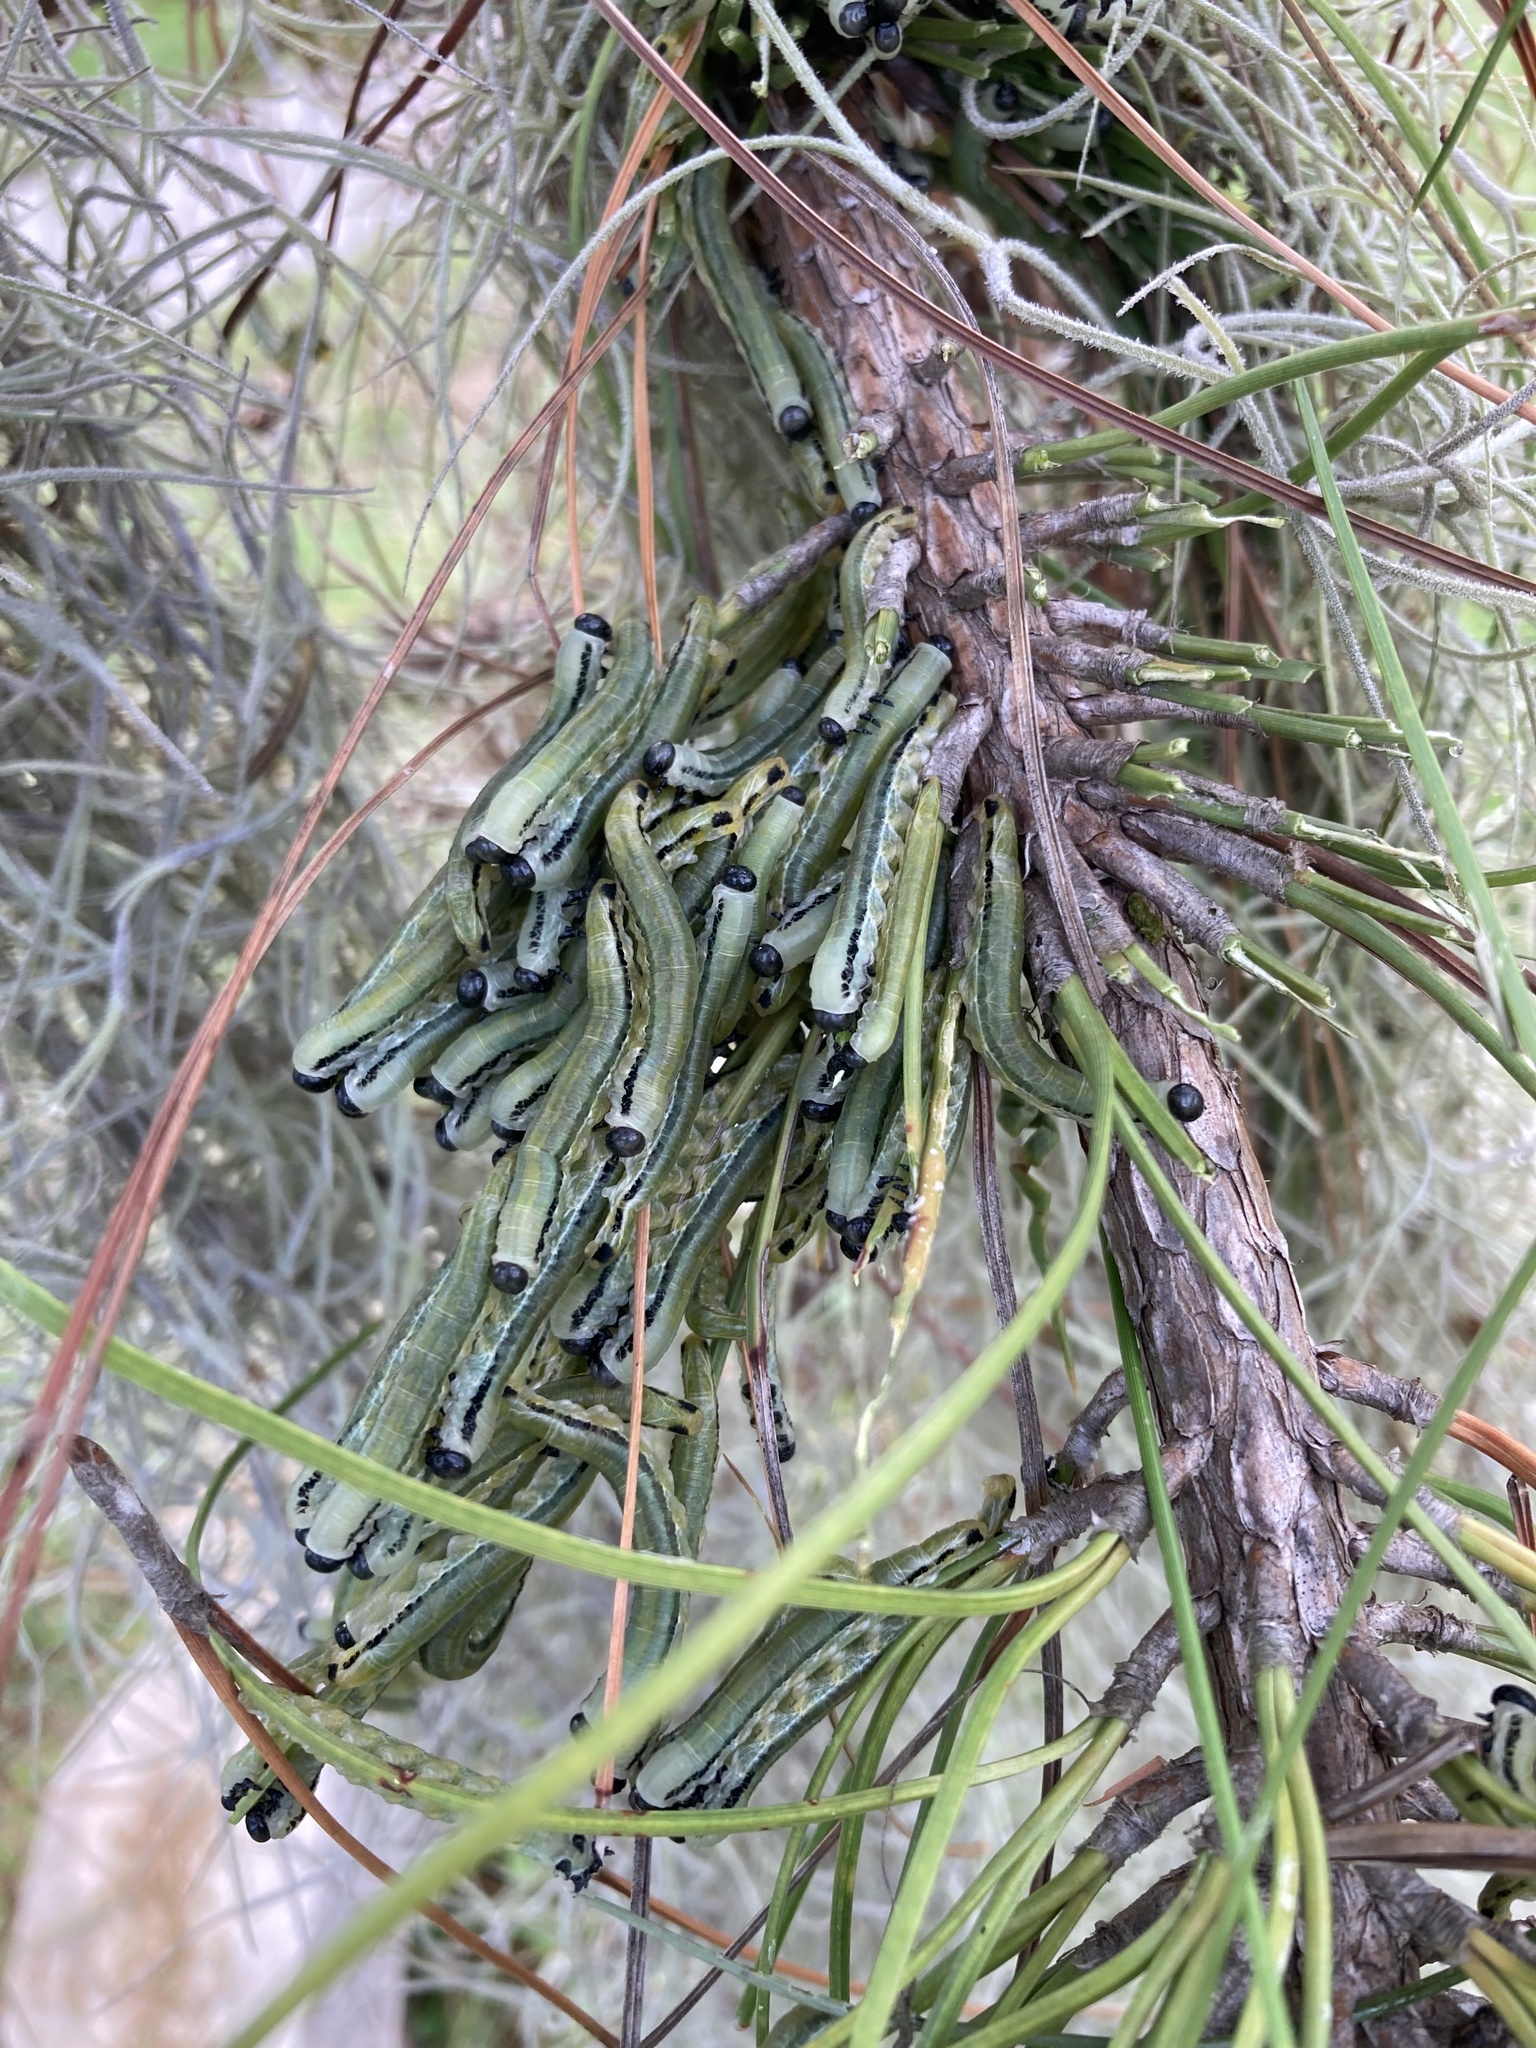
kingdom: Animalia
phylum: Arthropoda
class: Insecta
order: Hymenoptera
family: Diprionidae
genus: Neodiprion
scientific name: Neodiprion merkeli
